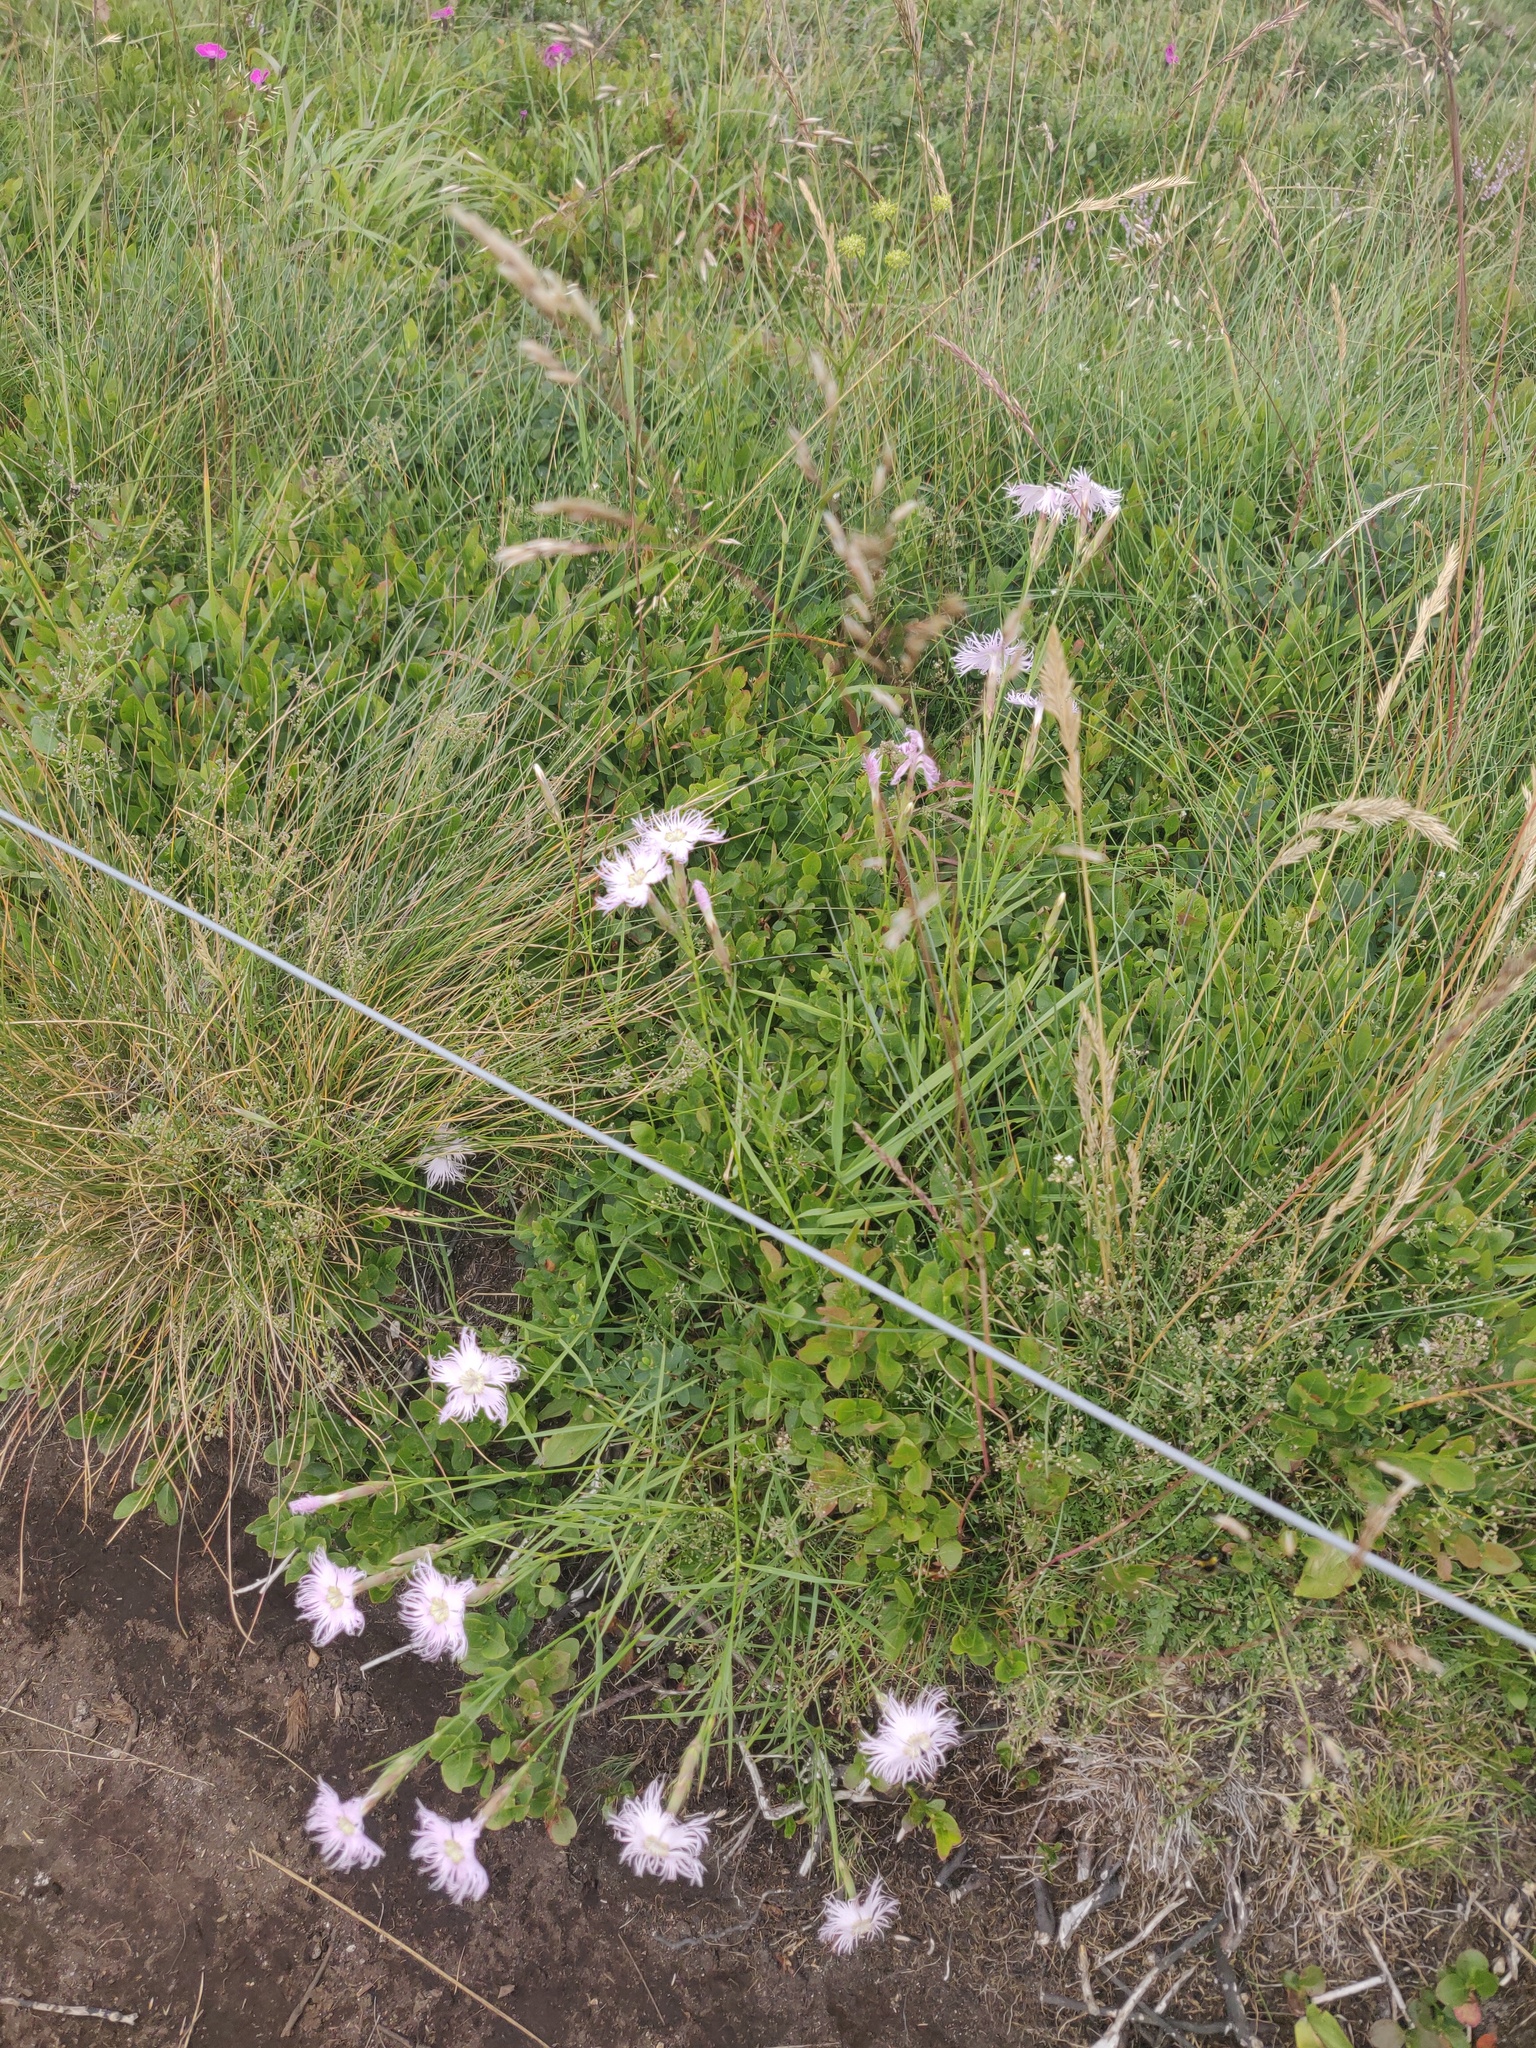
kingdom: Plantae
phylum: Tracheophyta
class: Magnoliopsida
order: Caryophyllales
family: Caryophyllaceae
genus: Dianthus
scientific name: Dianthus hyssopifolius
